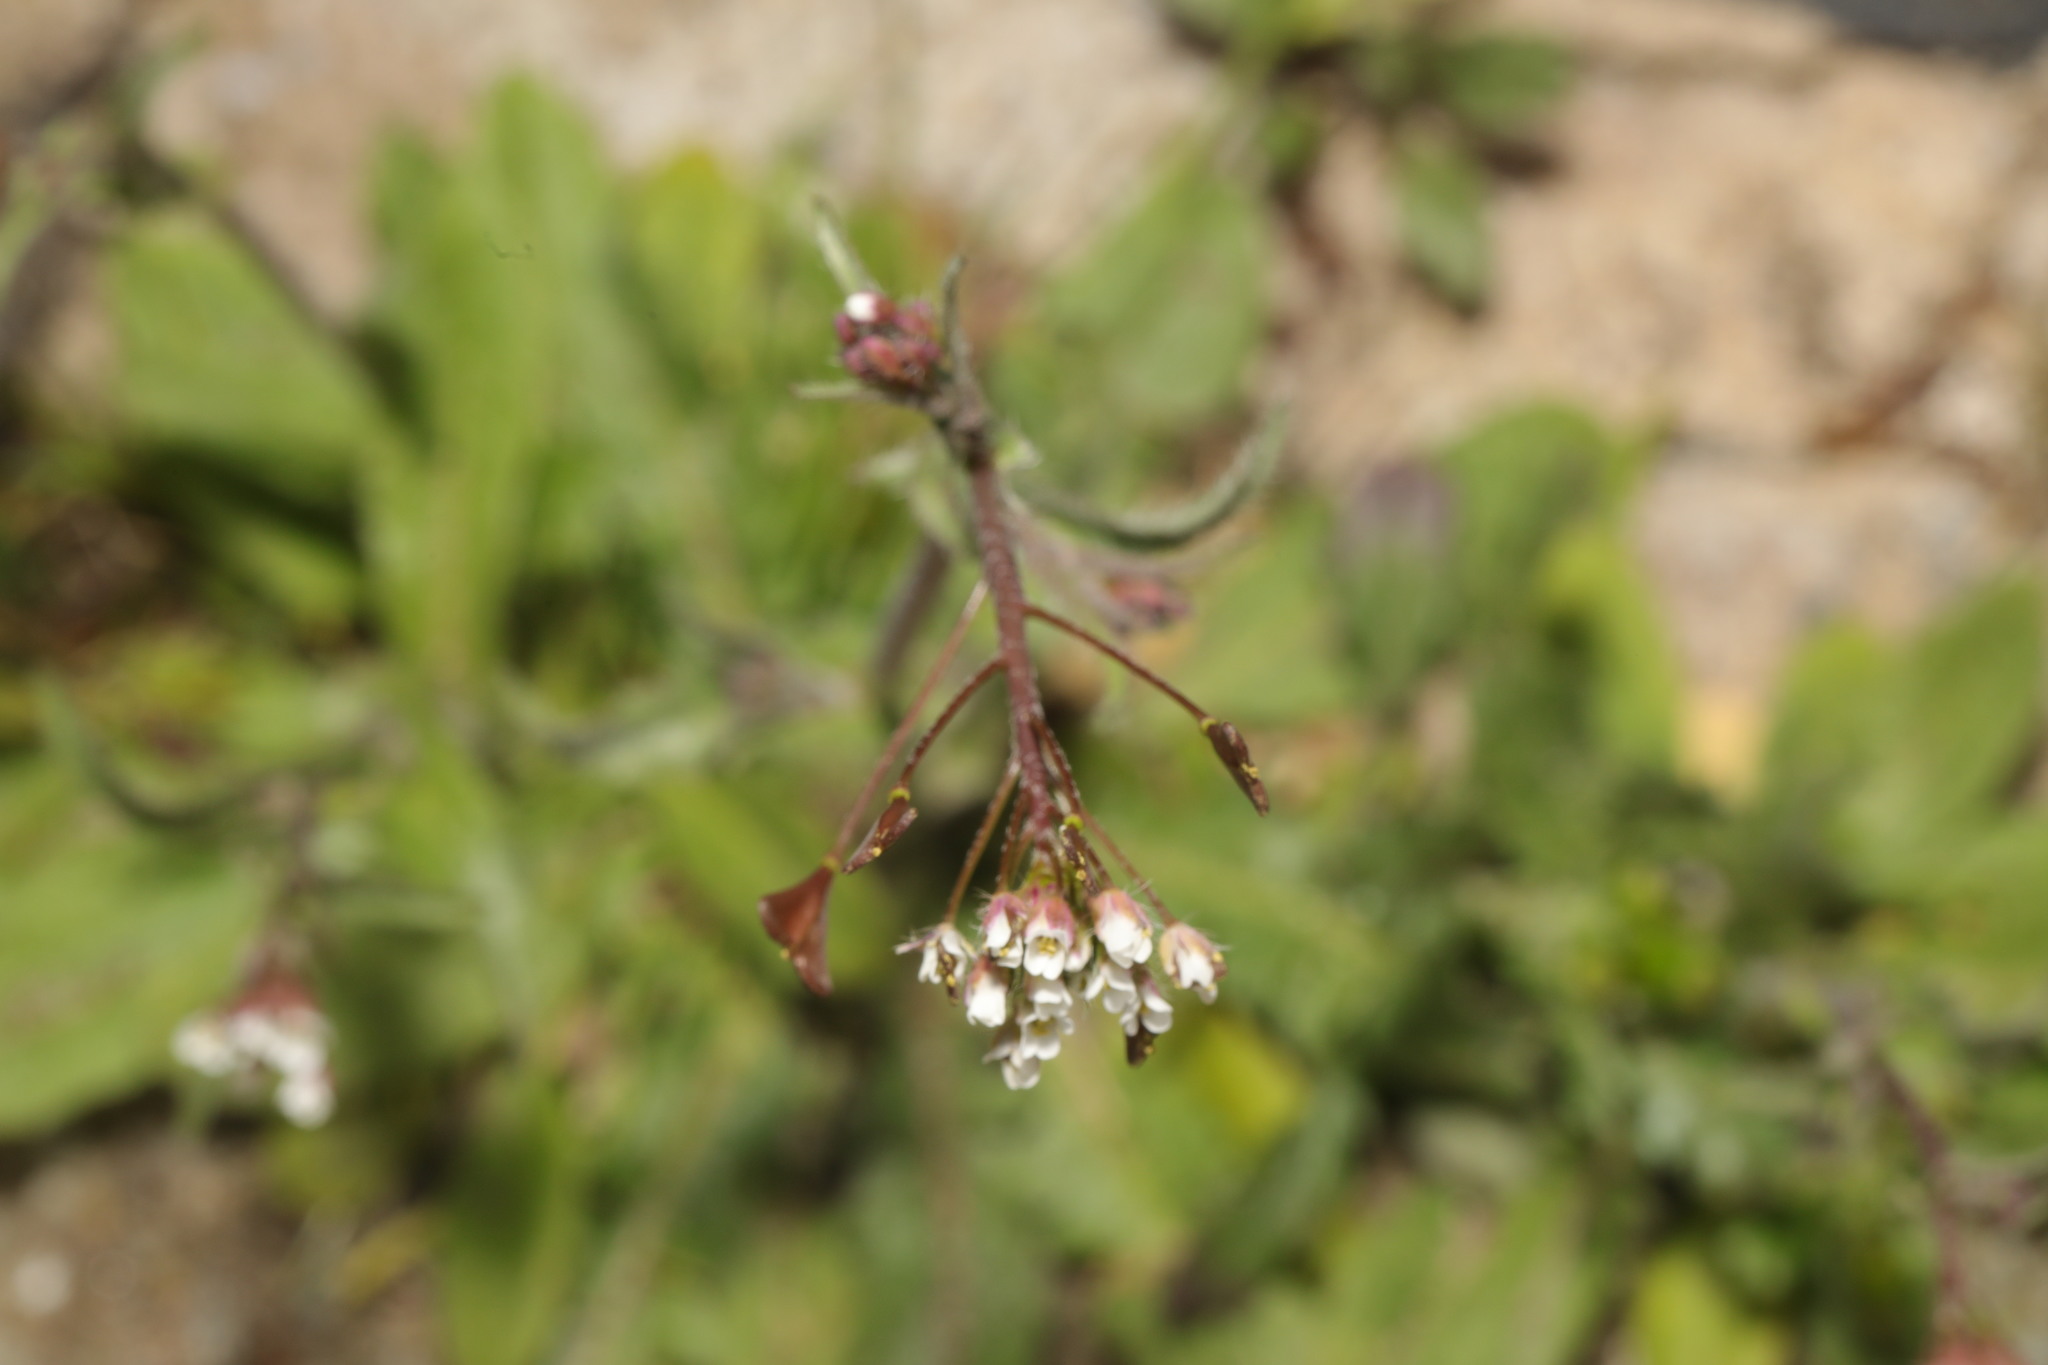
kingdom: Plantae
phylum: Tracheophyta
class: Magnoliopsida
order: Brassicales
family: Brassicaceae
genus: Capsella
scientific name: Capsella bursa-pastoris
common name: Shepherd's purse
